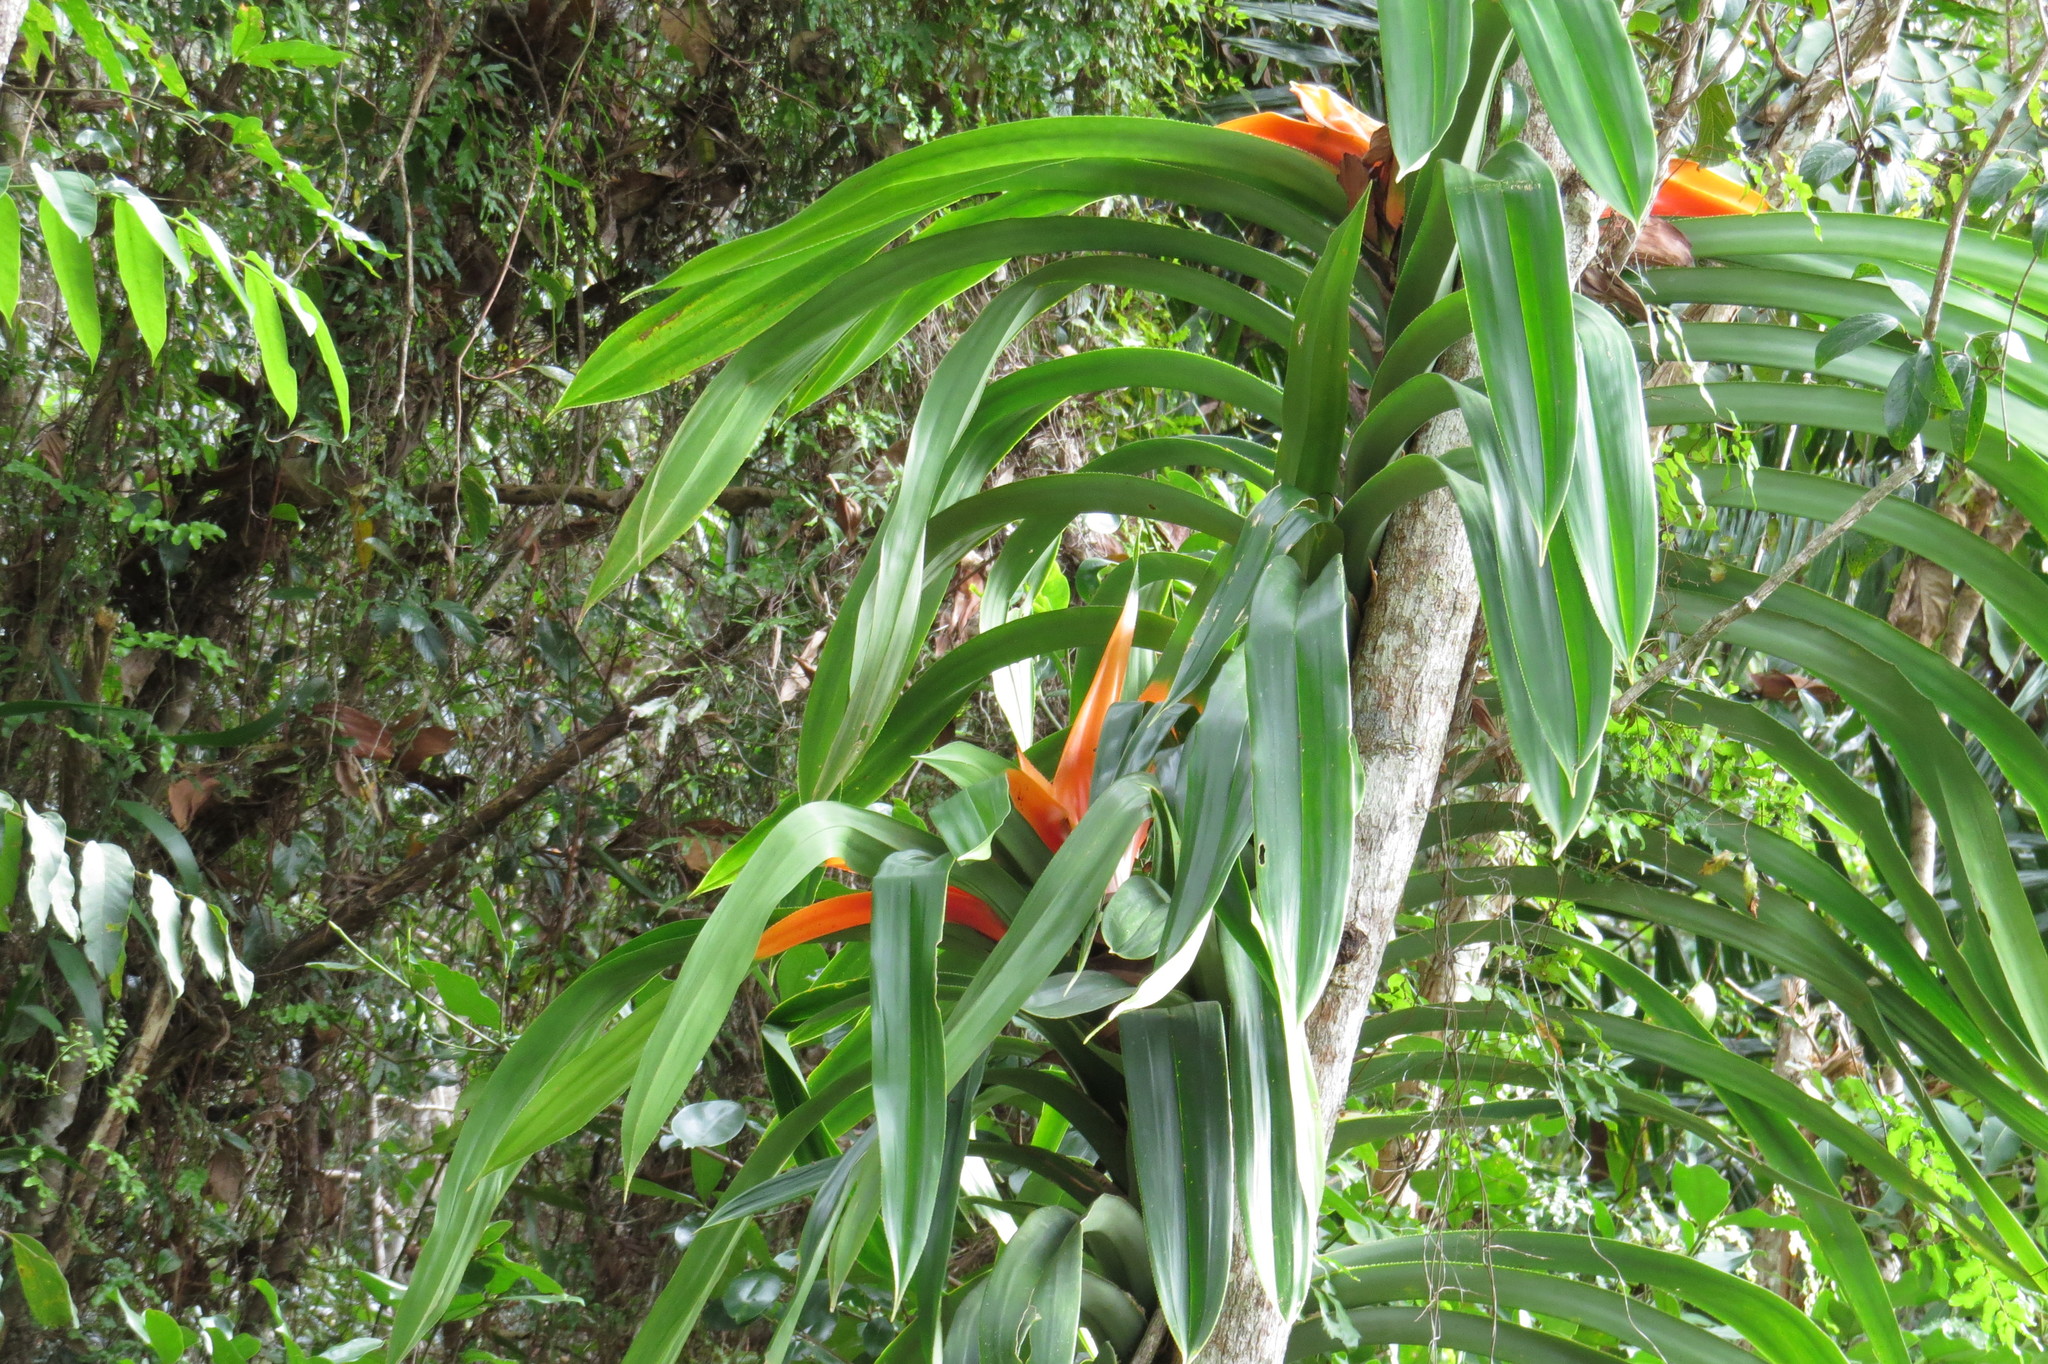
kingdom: Plantae
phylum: Tracheophyta
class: Liliopsida
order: Pandanales
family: Pandanaceae
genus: Freycinetia
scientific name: Freycinetia marginata
